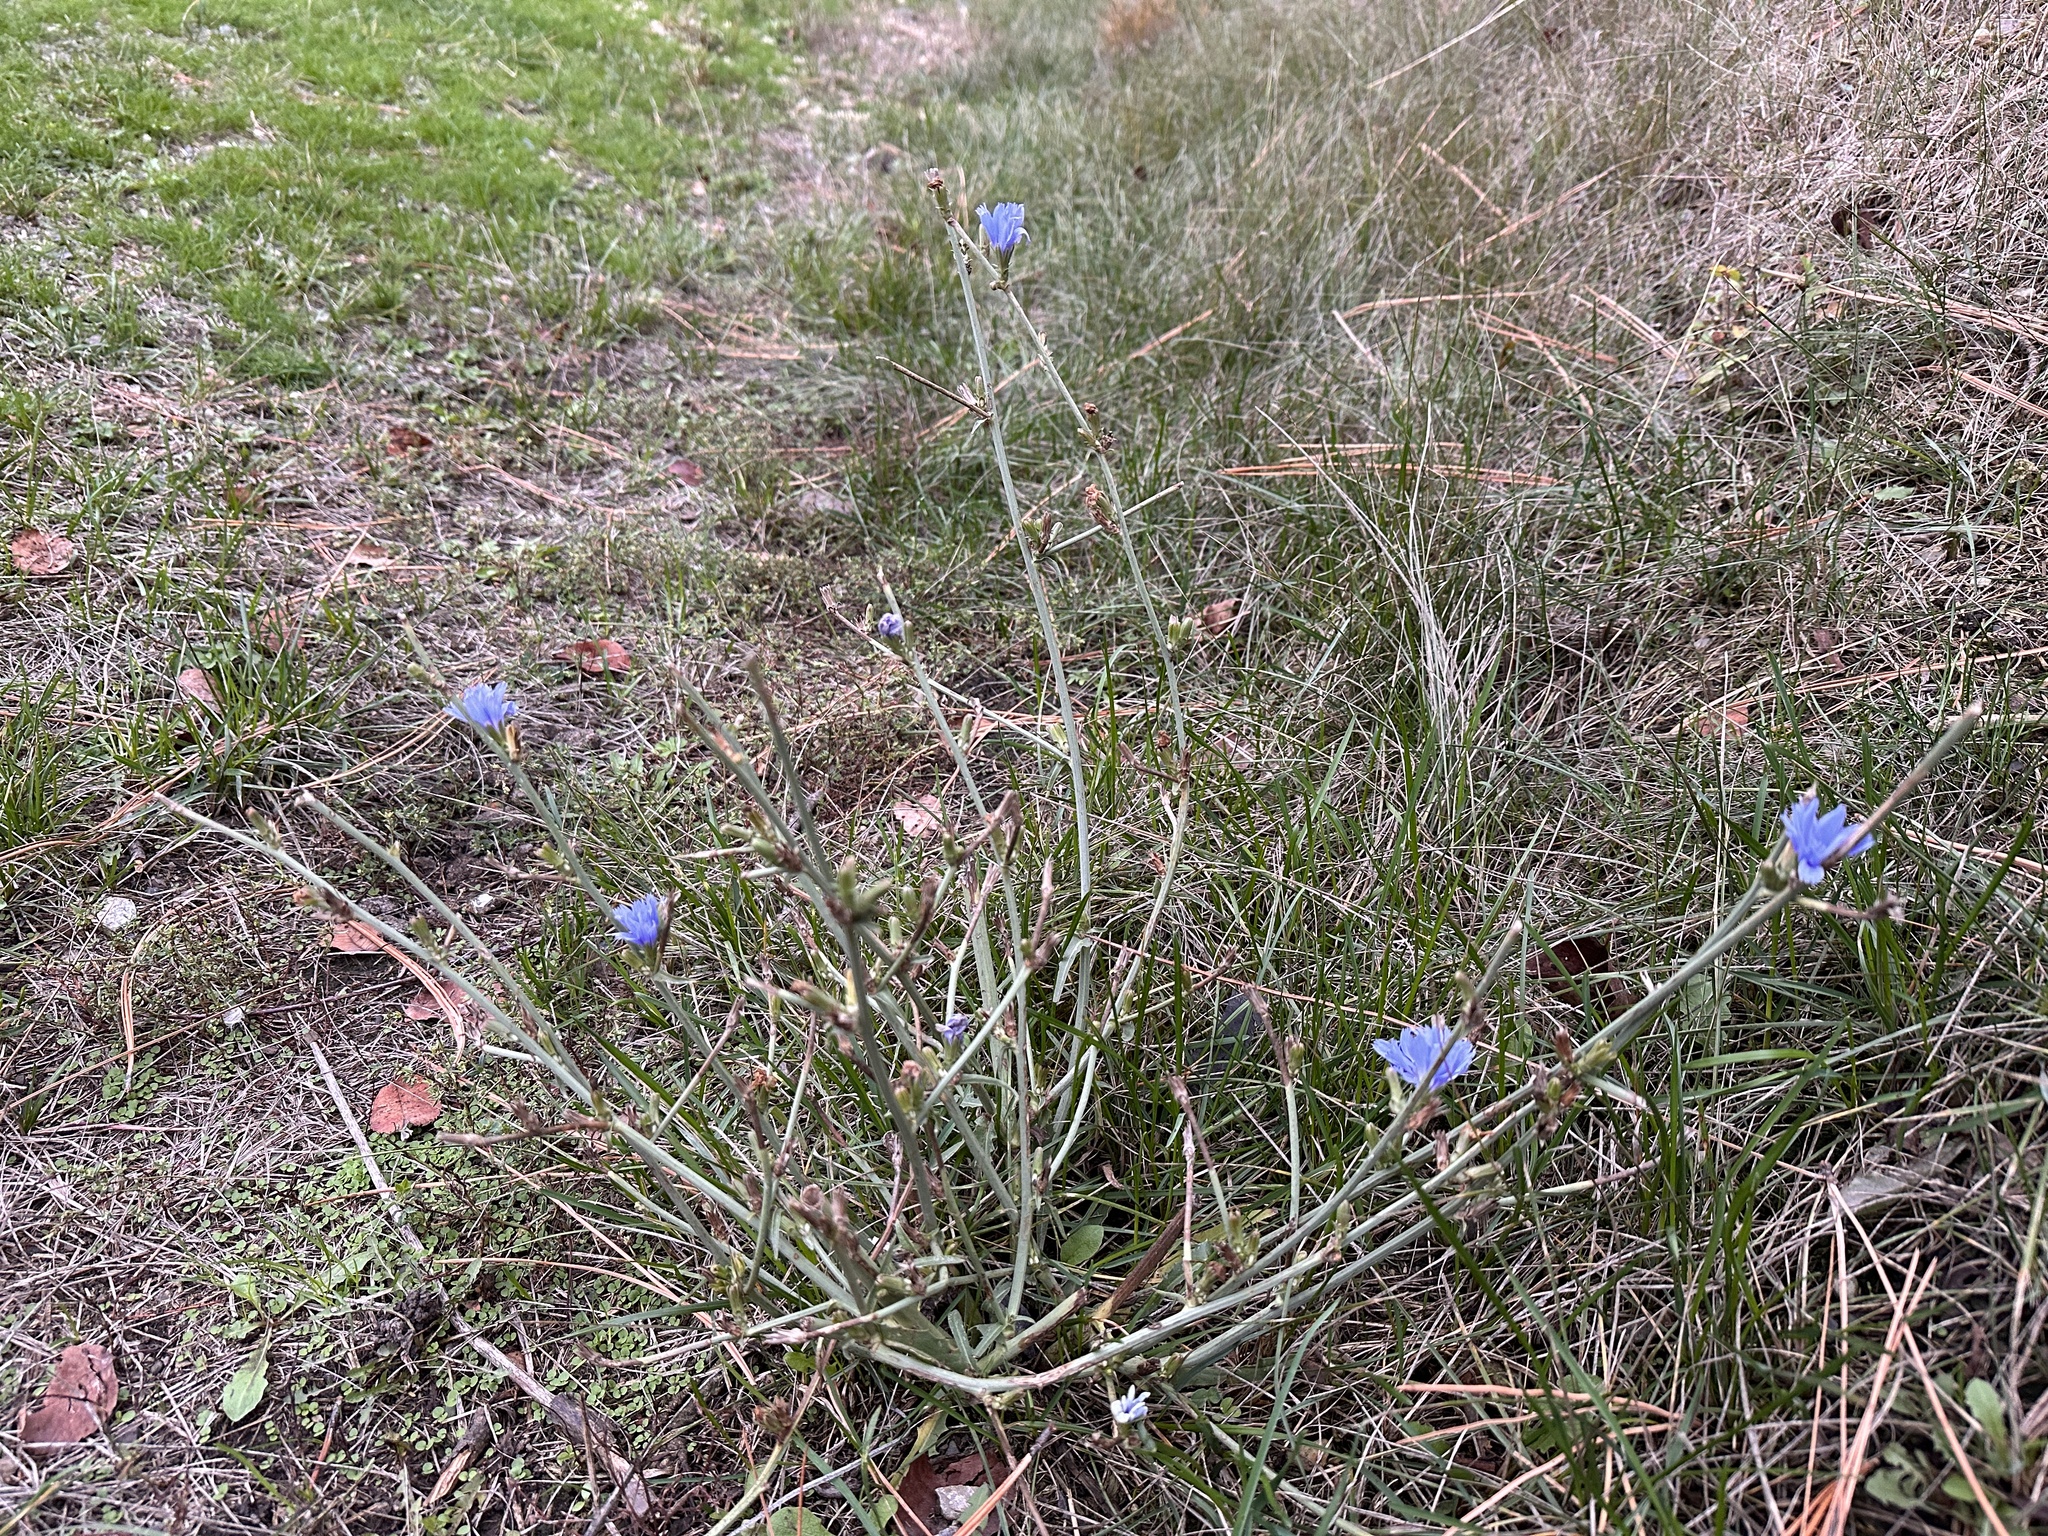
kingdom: Plantae
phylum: Tracheophyta
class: Magnoliopsida
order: Asterales
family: Asteraceae
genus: Cichorium
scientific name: Cichorium intybus
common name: Chicory
